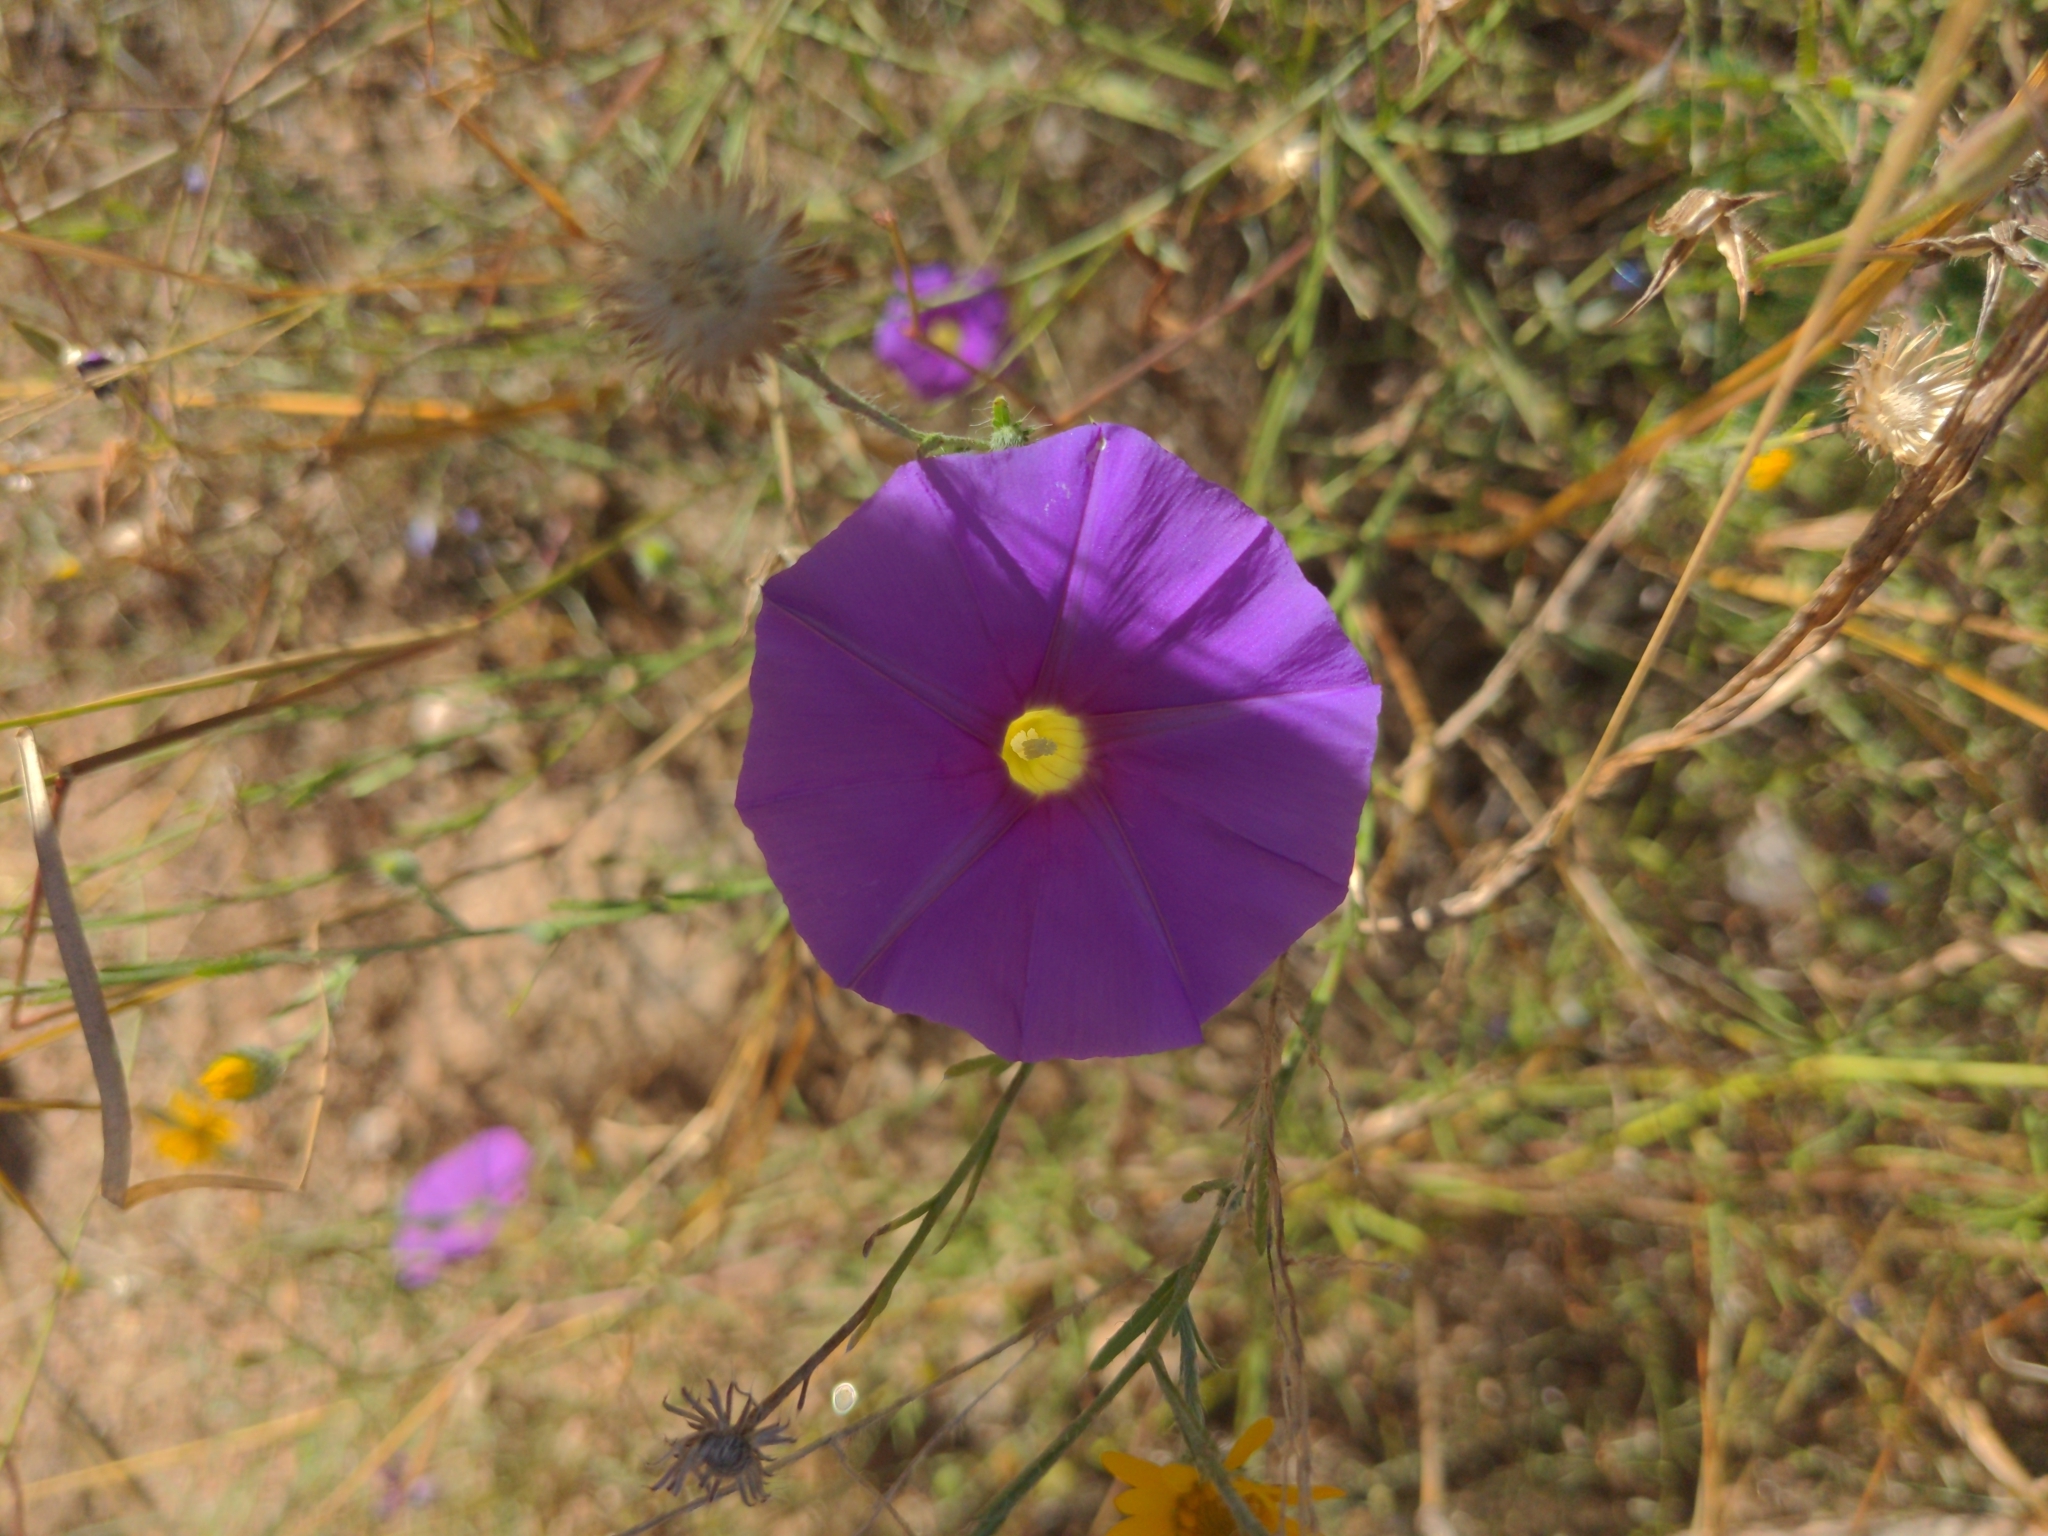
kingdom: Plantae
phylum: Tracheophyta
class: Magnoliopsida
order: Solanales
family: Convolvulaceae
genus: Ipomoea
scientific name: Ipomoea ternifolia
